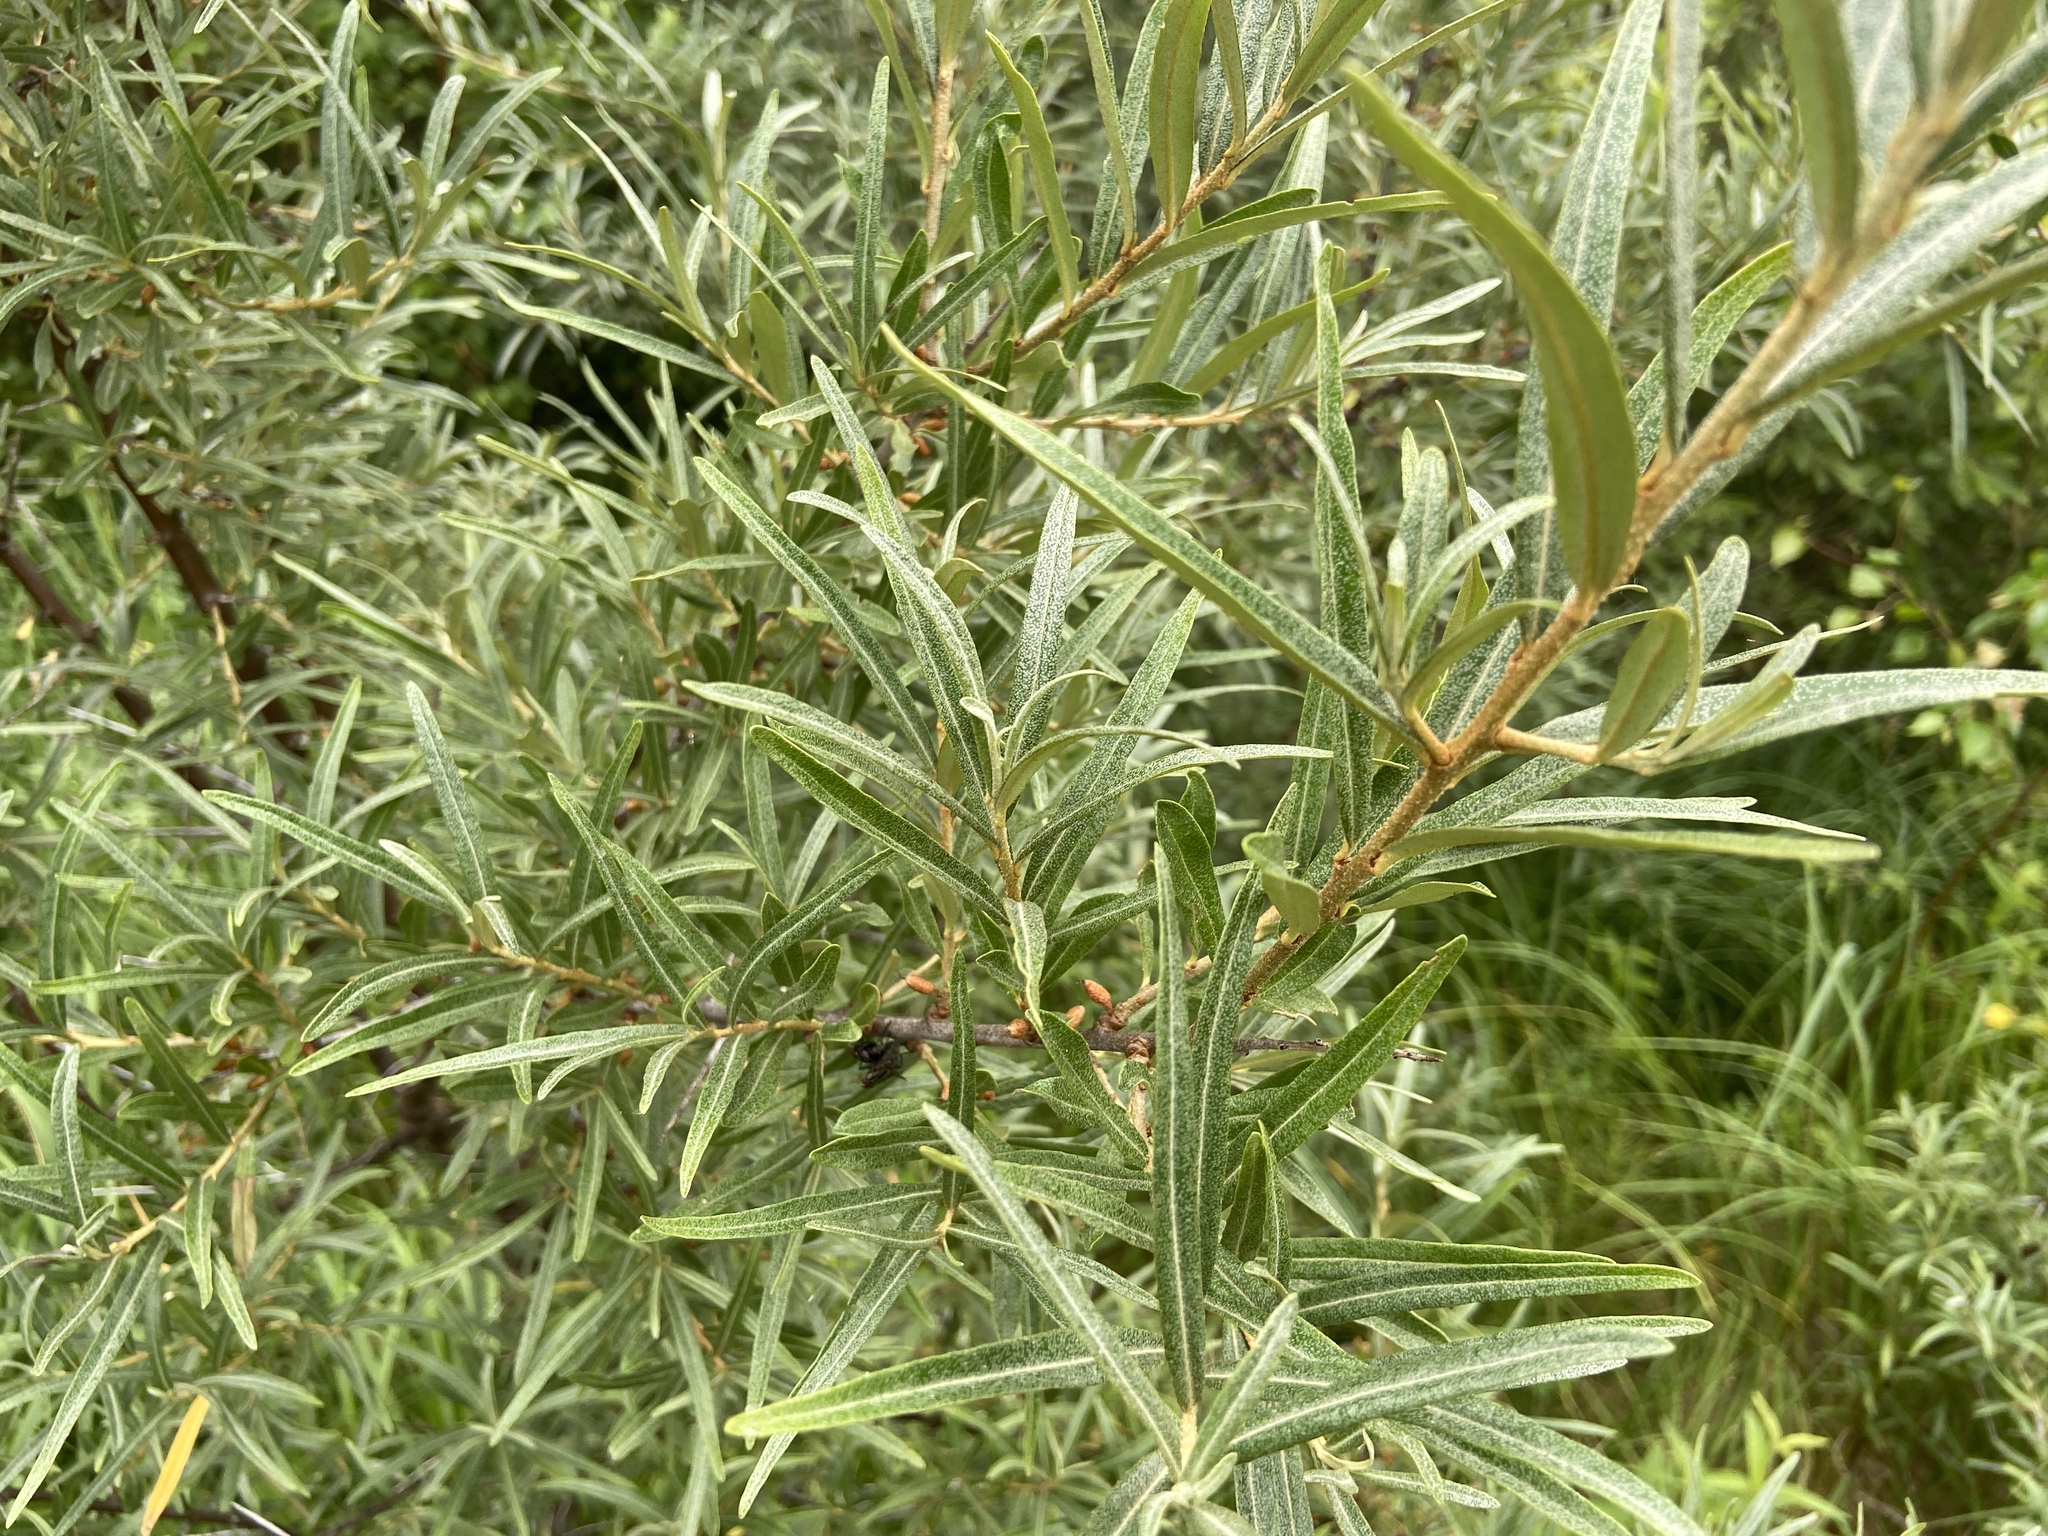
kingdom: Plantae
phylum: Tracheophyta
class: Magnoliopsida
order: Rosales
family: Elaeagnaceae
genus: Hippophae
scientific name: Hippophae rhamnoides
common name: Sea-buckthorn
